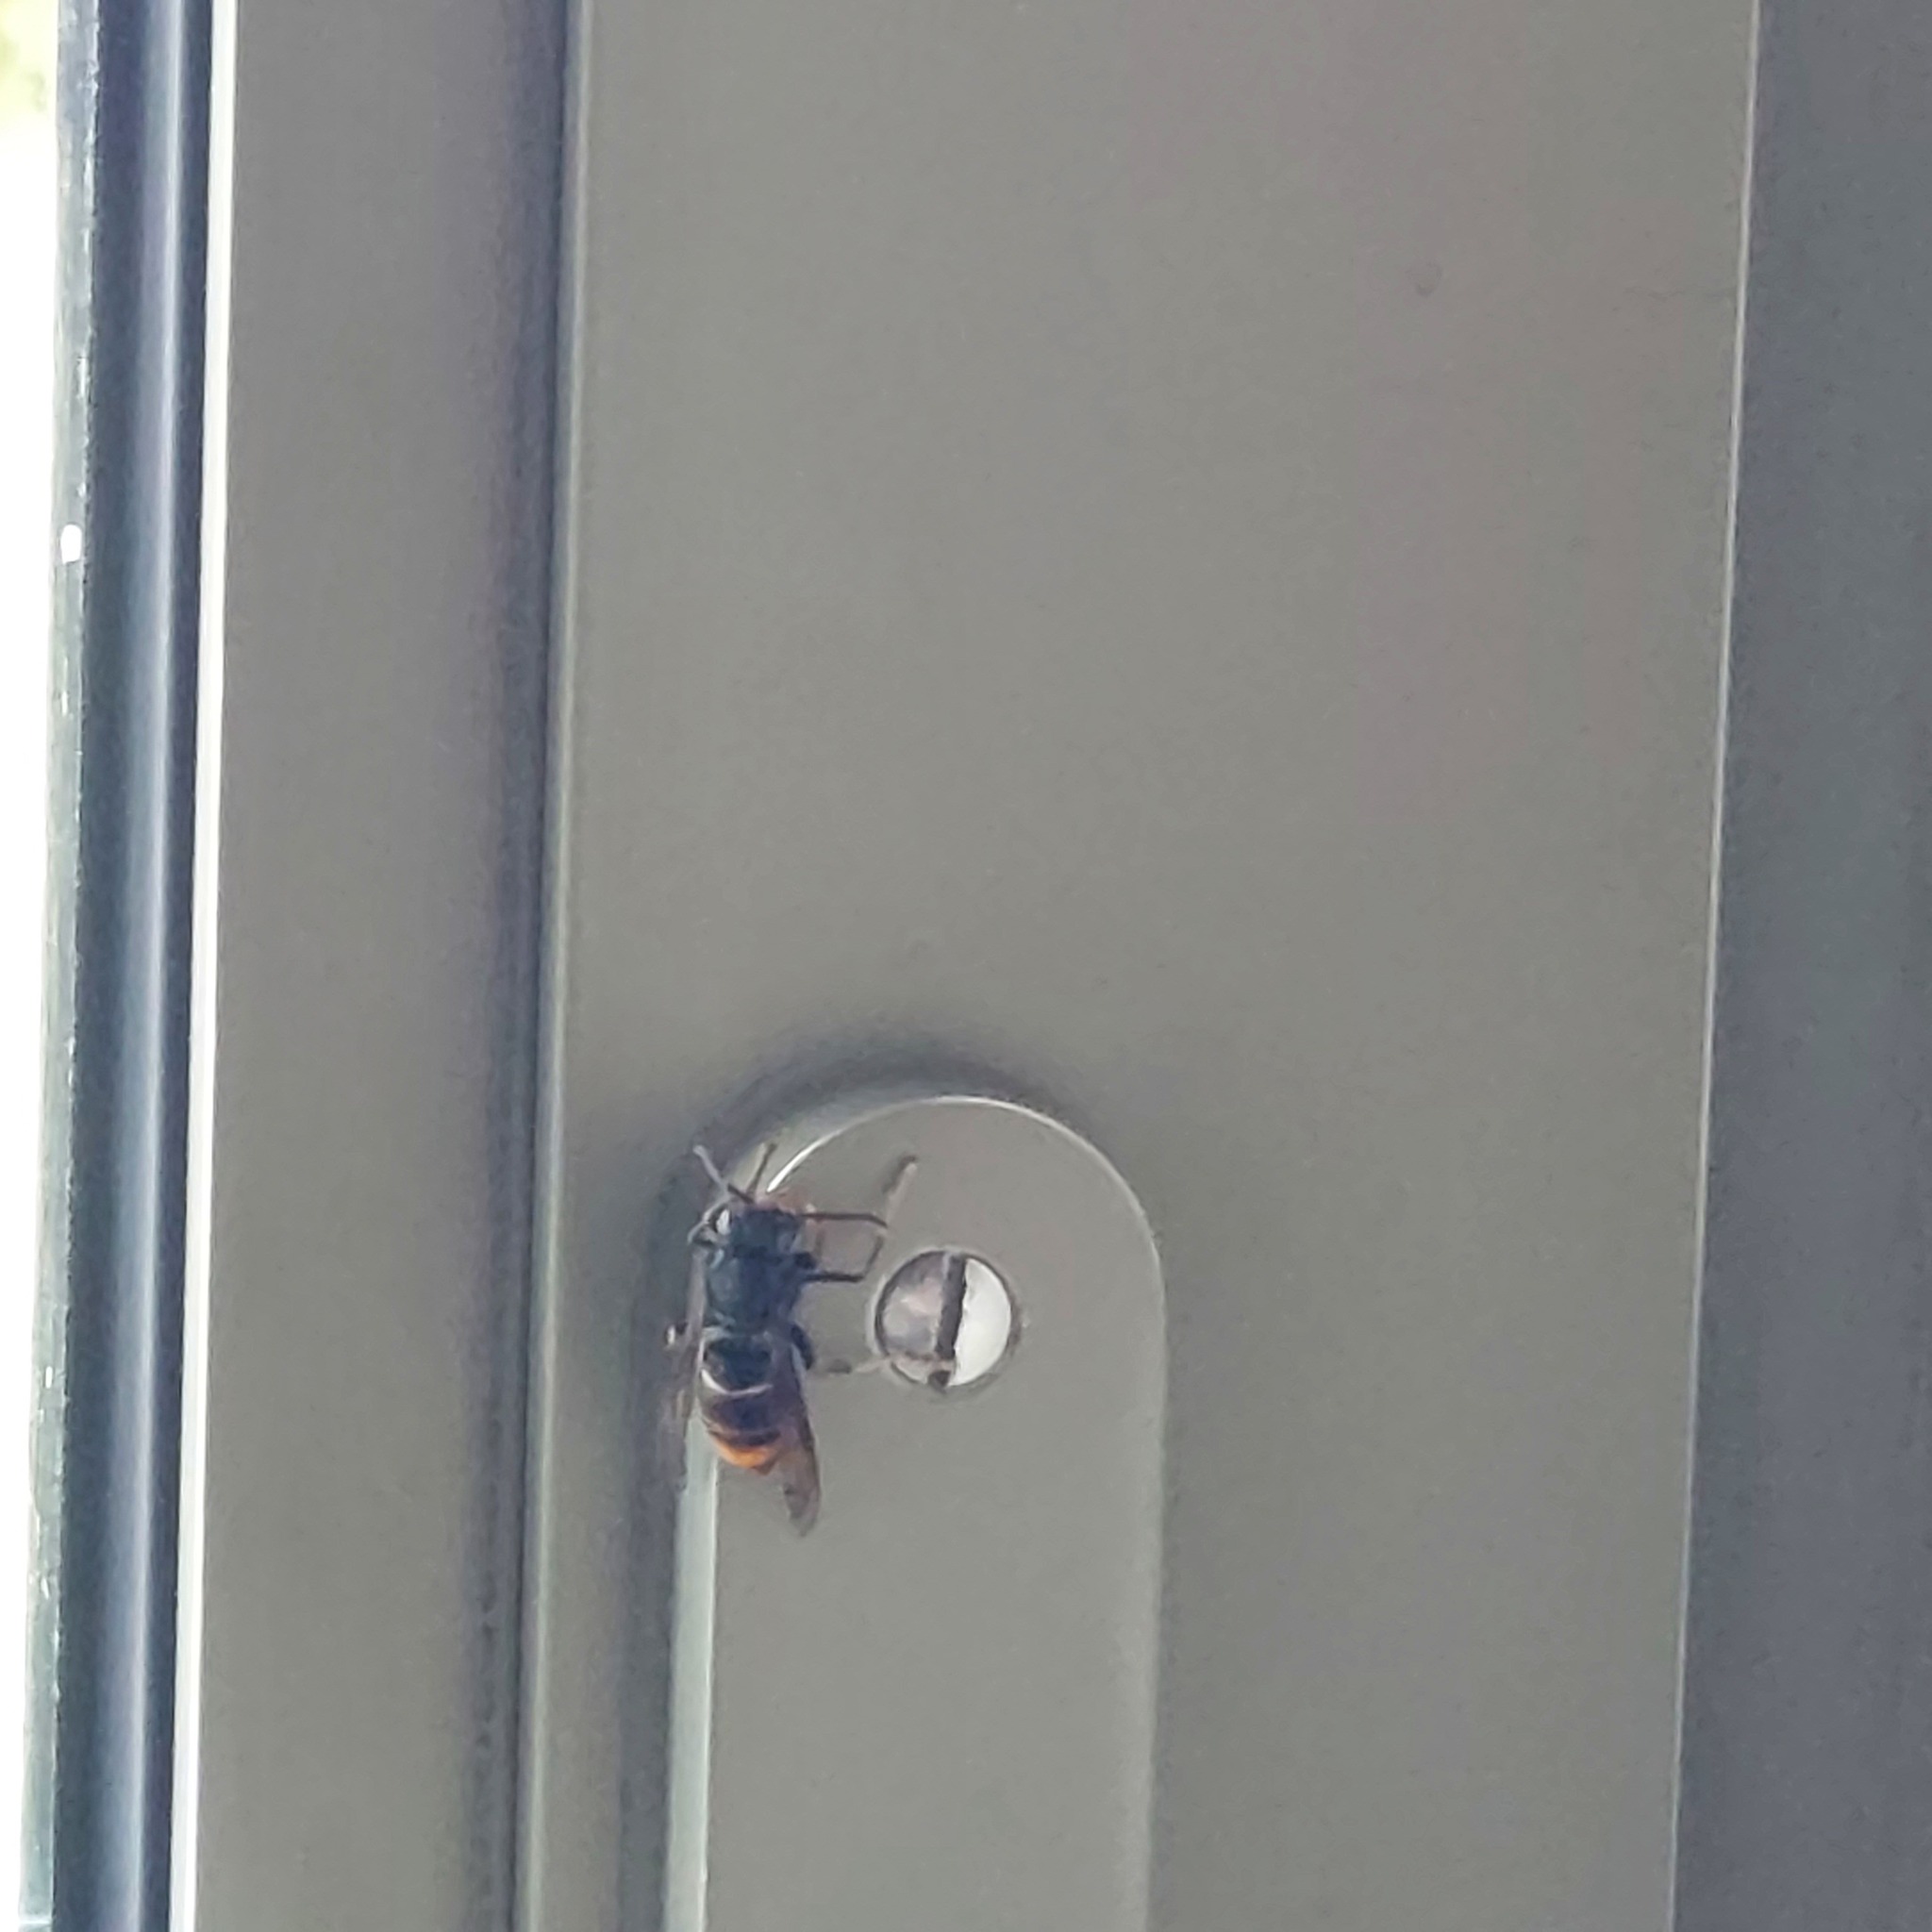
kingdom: Animalia
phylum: Arthropoda
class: Insecta
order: Hymenoptera
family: Vespidae
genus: Vespa
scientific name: Vespa velutina
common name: Asian hornet
